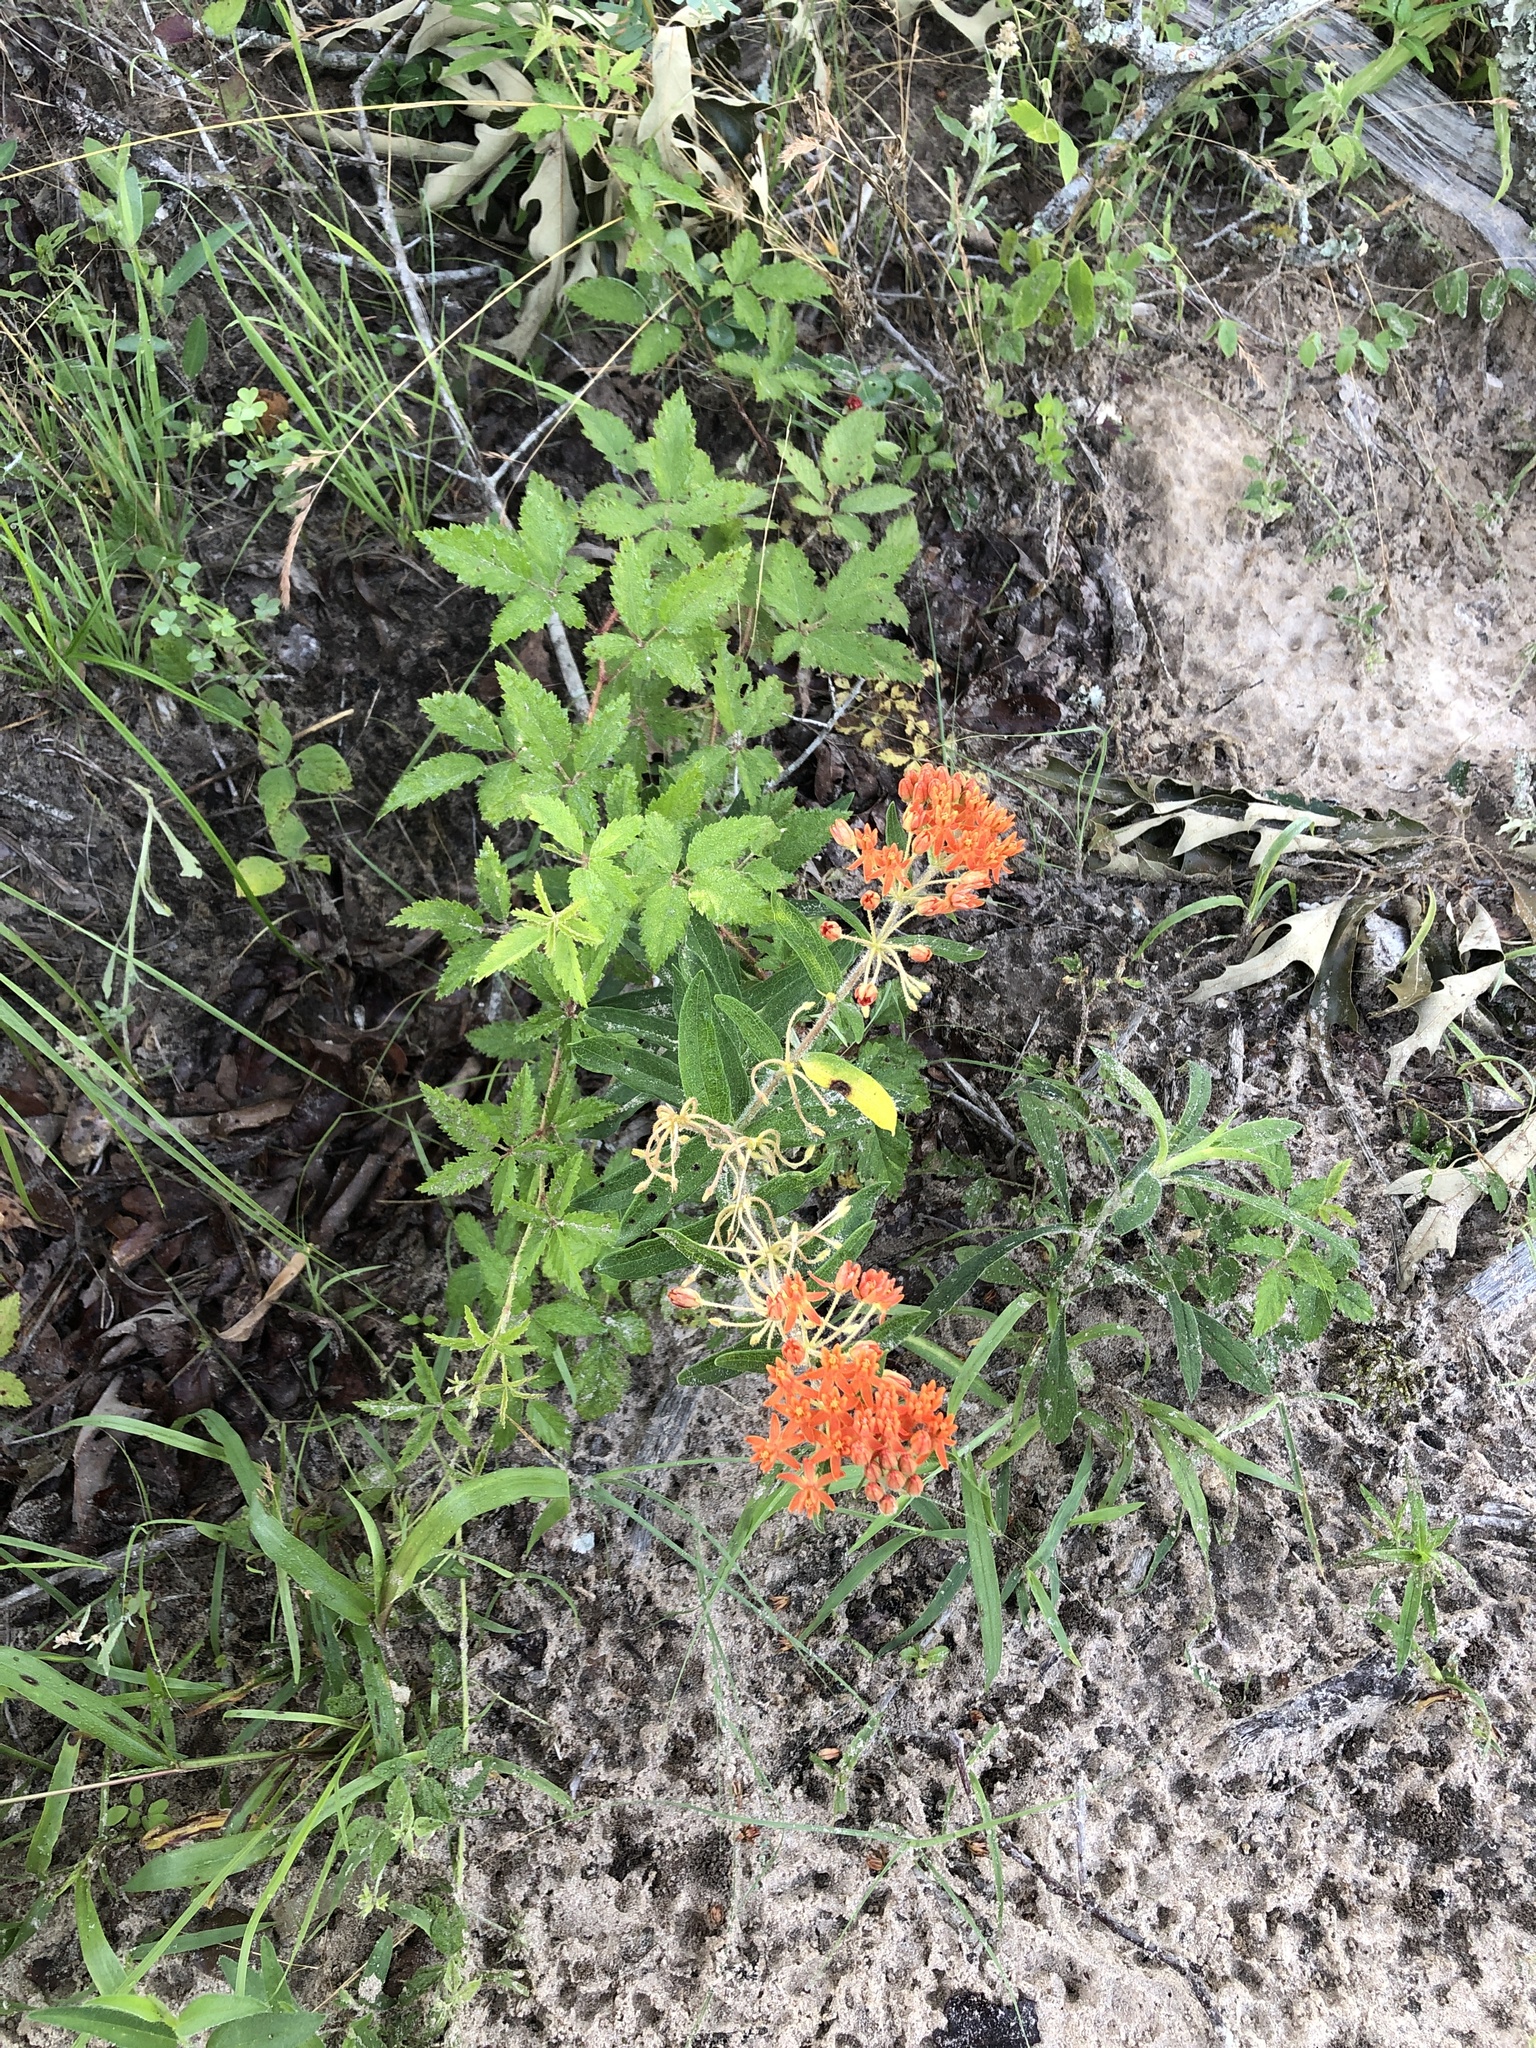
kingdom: Plantae
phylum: Tracheophyta
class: Magnoliopsida
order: Gentianales
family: Apocynaceae
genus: Asclepias
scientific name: Asclepias tuberosa
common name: Butterfly milkweed
